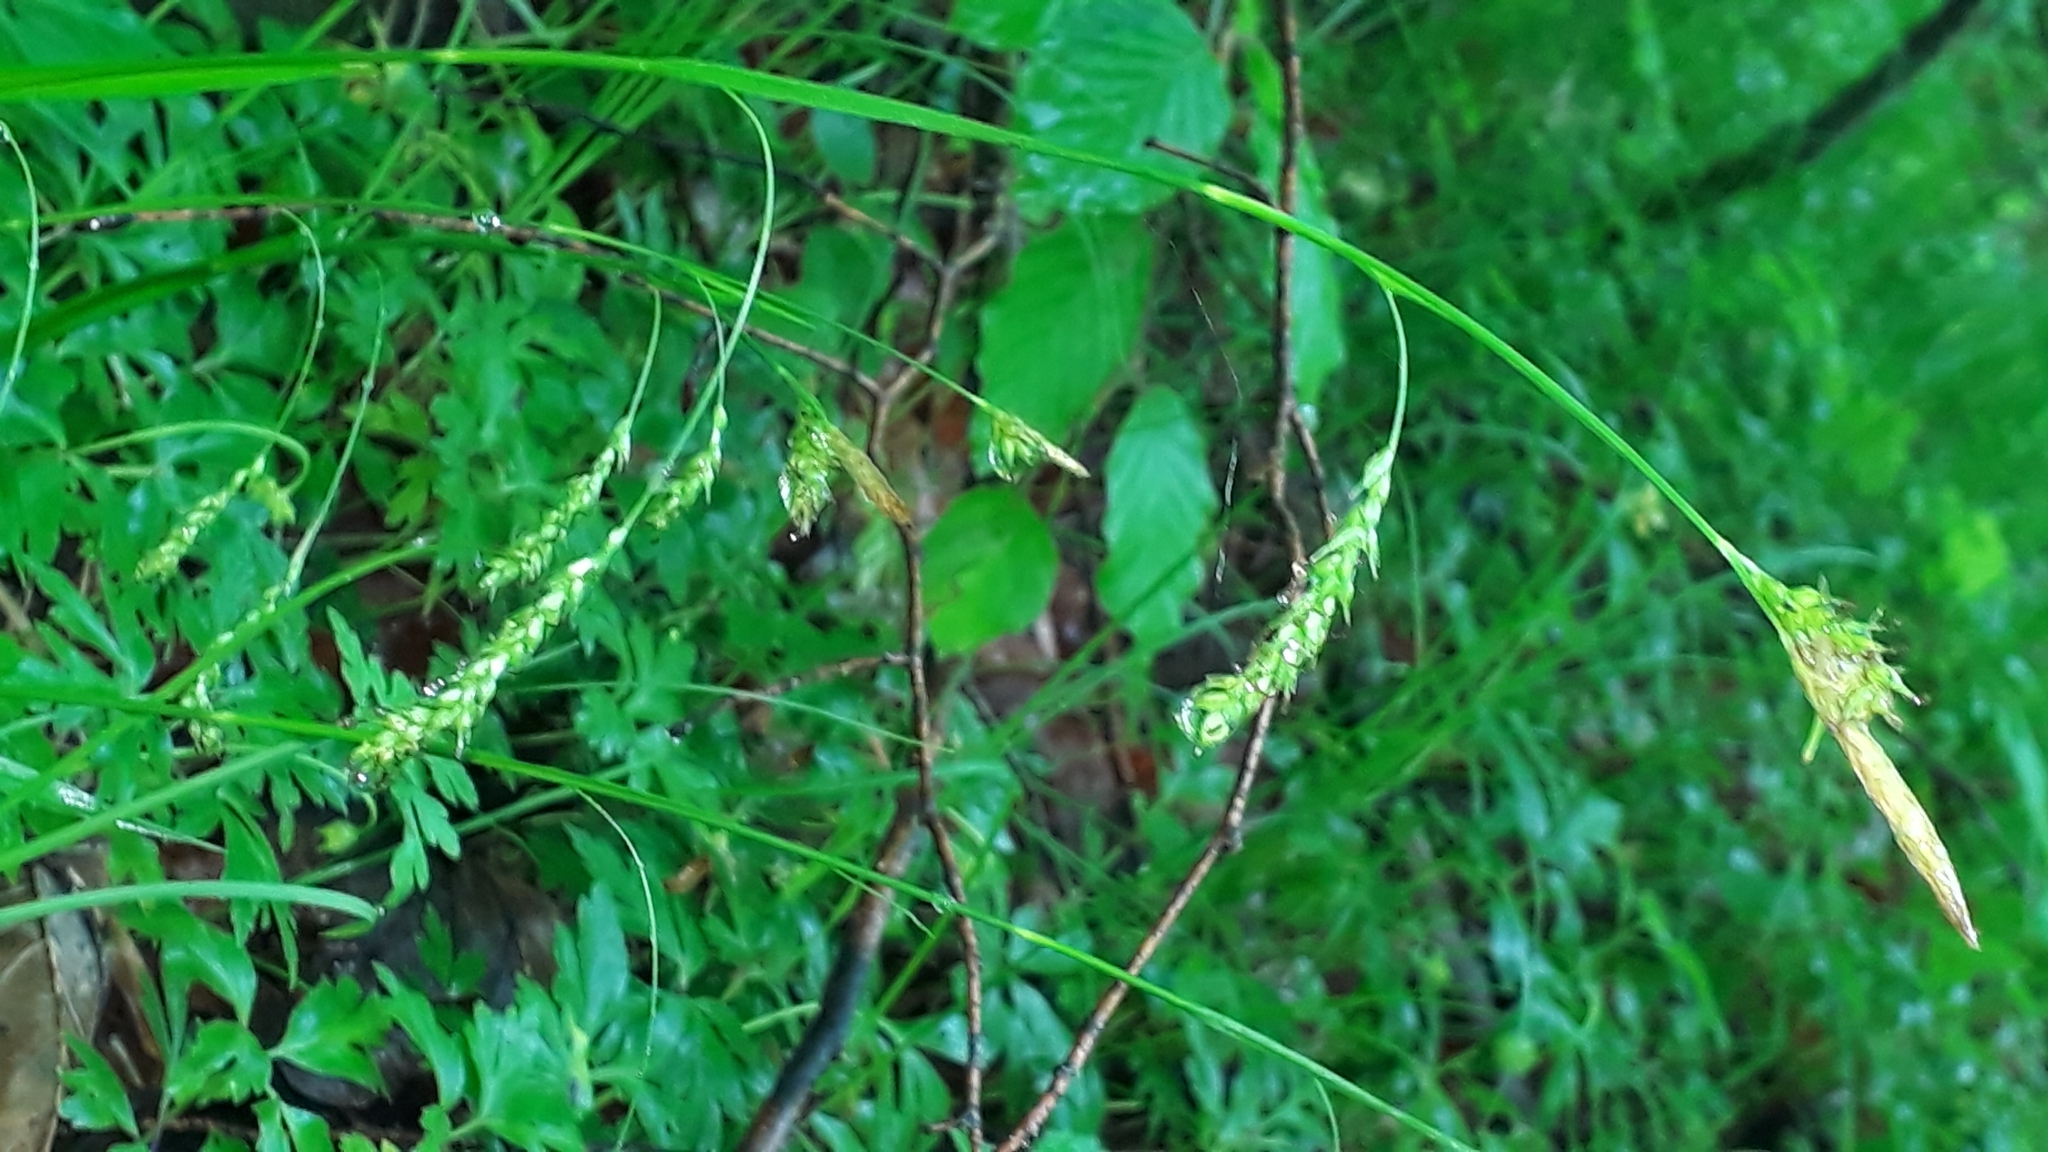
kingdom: Plantae
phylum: Tracheophyta
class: Liliopsida
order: Poales
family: Cyperaceae
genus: Carex
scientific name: Carex sylvatica
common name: Wood-sedge
